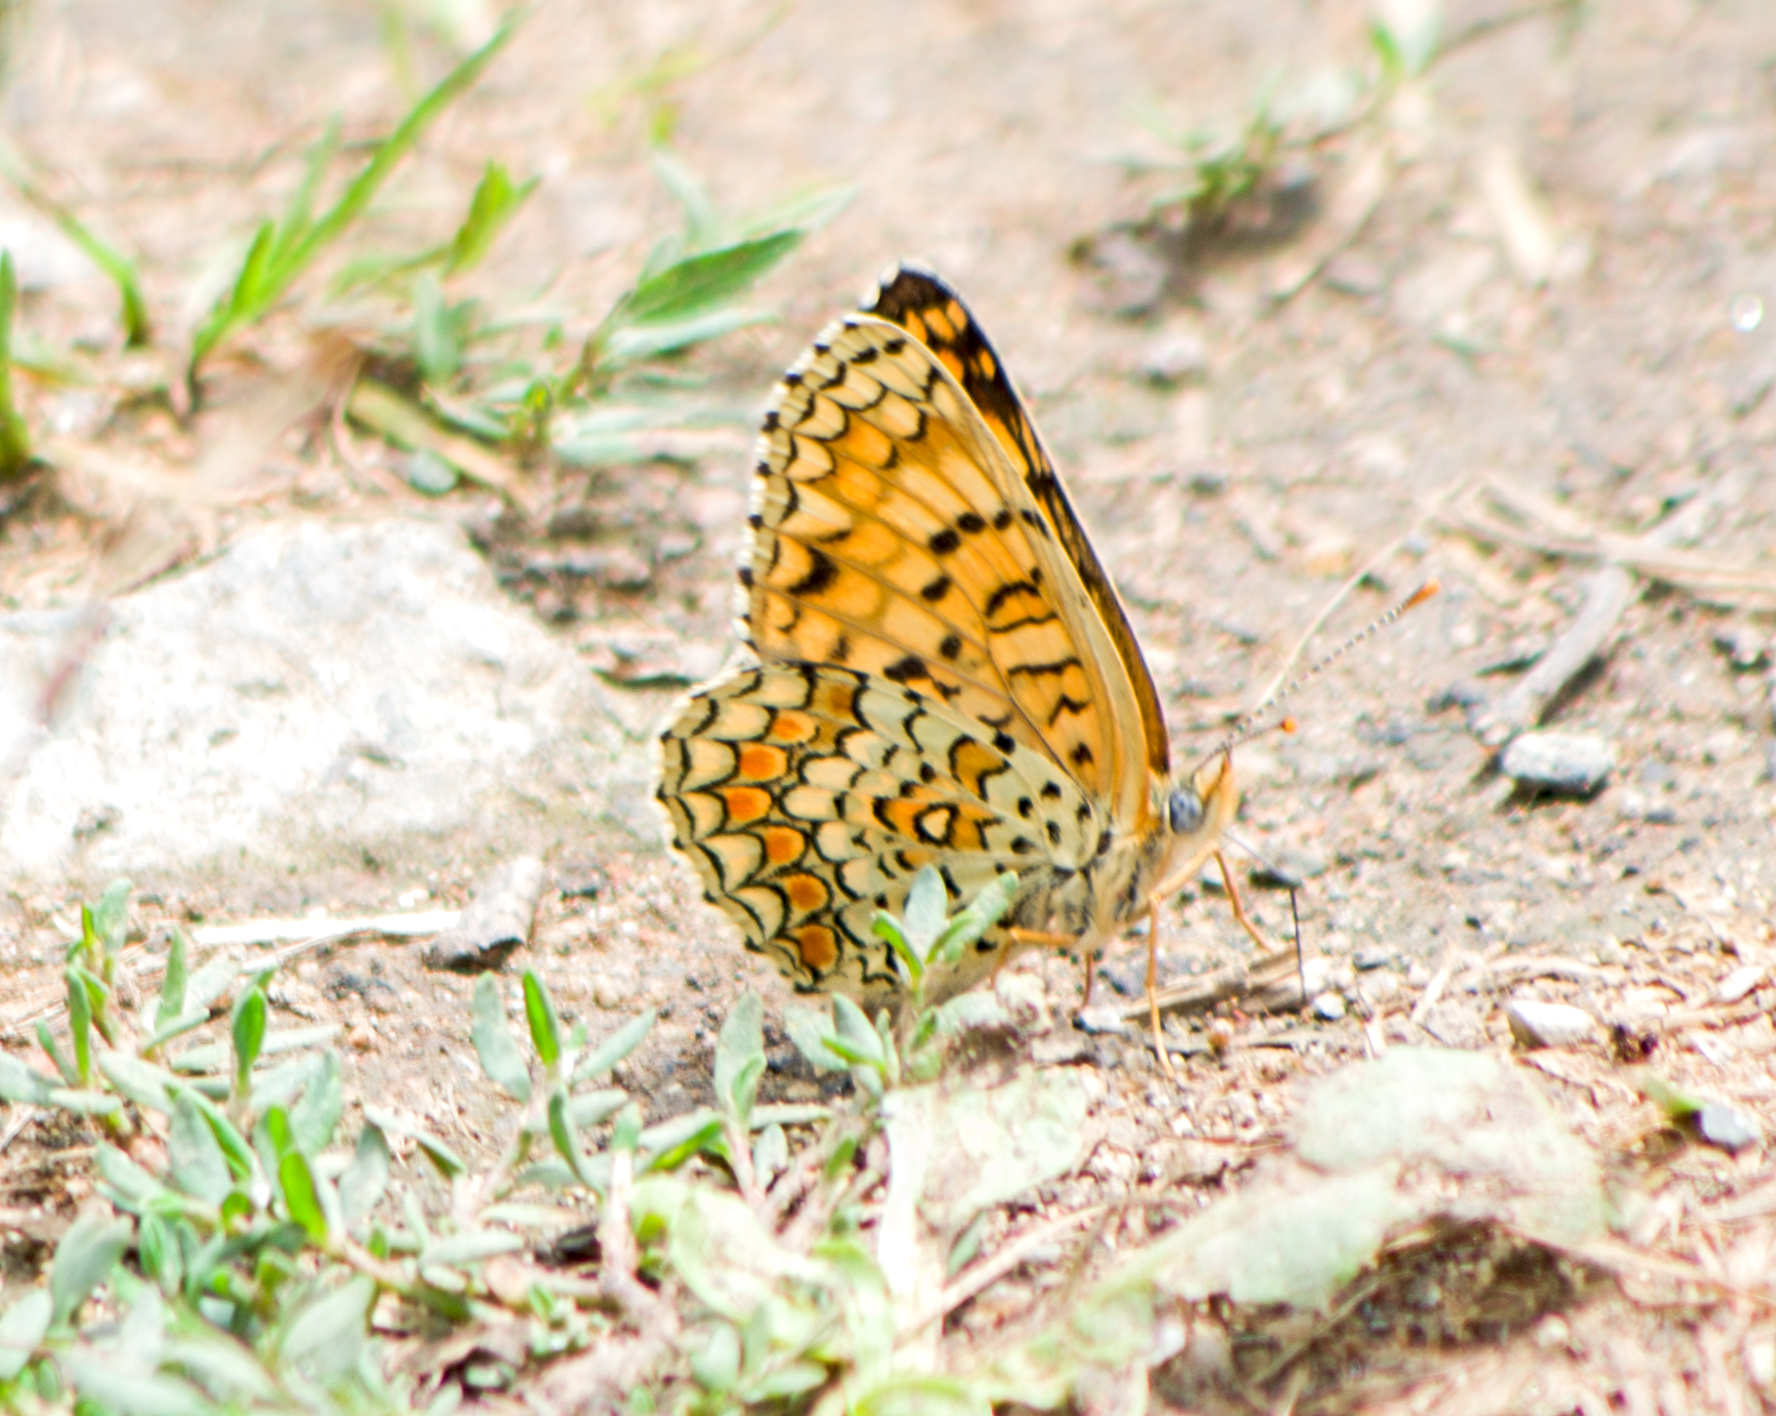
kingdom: Animalia
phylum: Arthropoda
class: Insecta
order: Lepidoptera
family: Nymphalidae
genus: Melitaea
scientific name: Melitaea phoebe
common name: Knapweed fritillary
